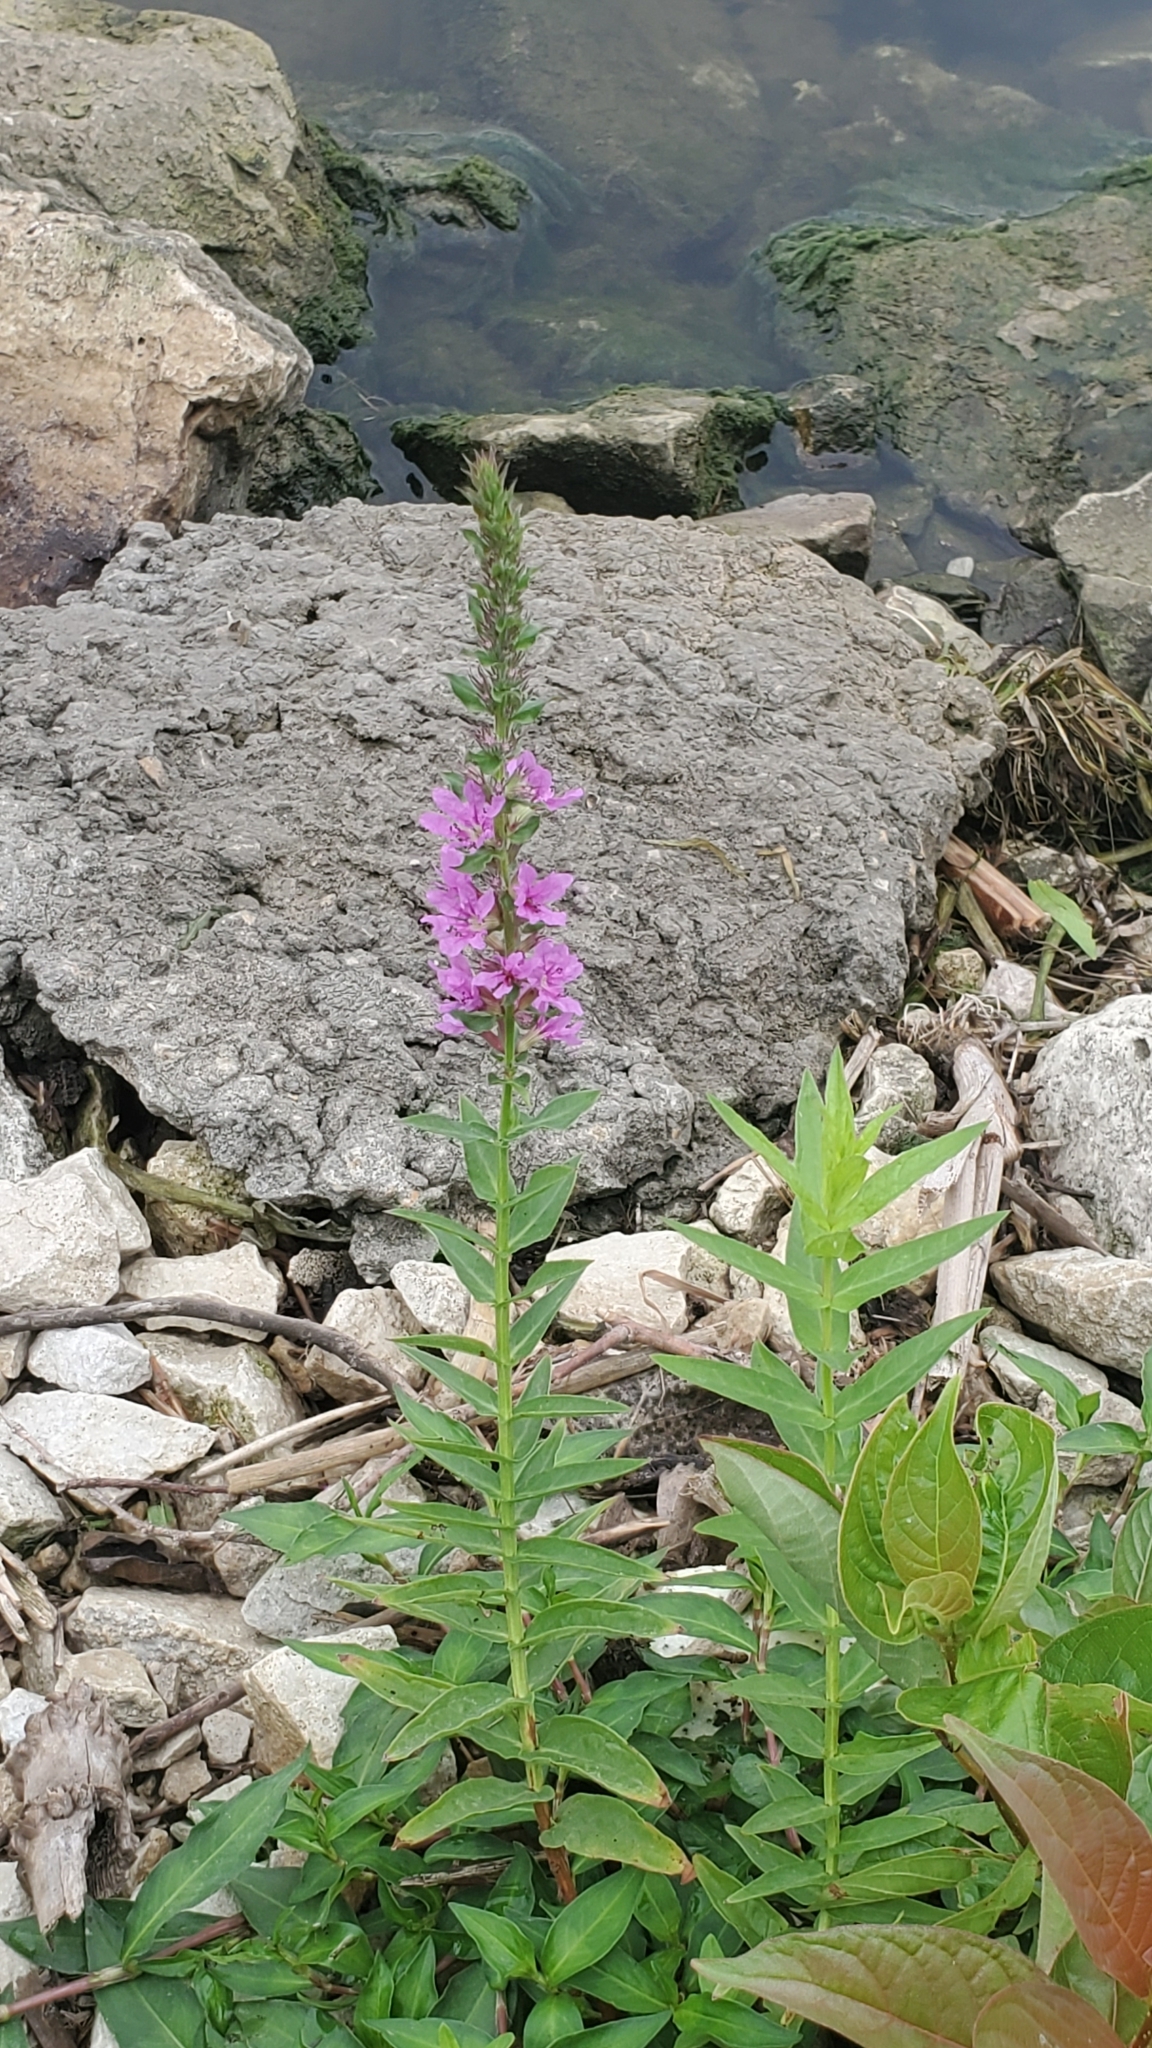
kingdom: Plantae
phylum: Tracheophyta
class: Magnoliopsida
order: Myrtales
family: Lythraceae
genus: Lythrum
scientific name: Lythrum salicaria
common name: Purple loosestrife
